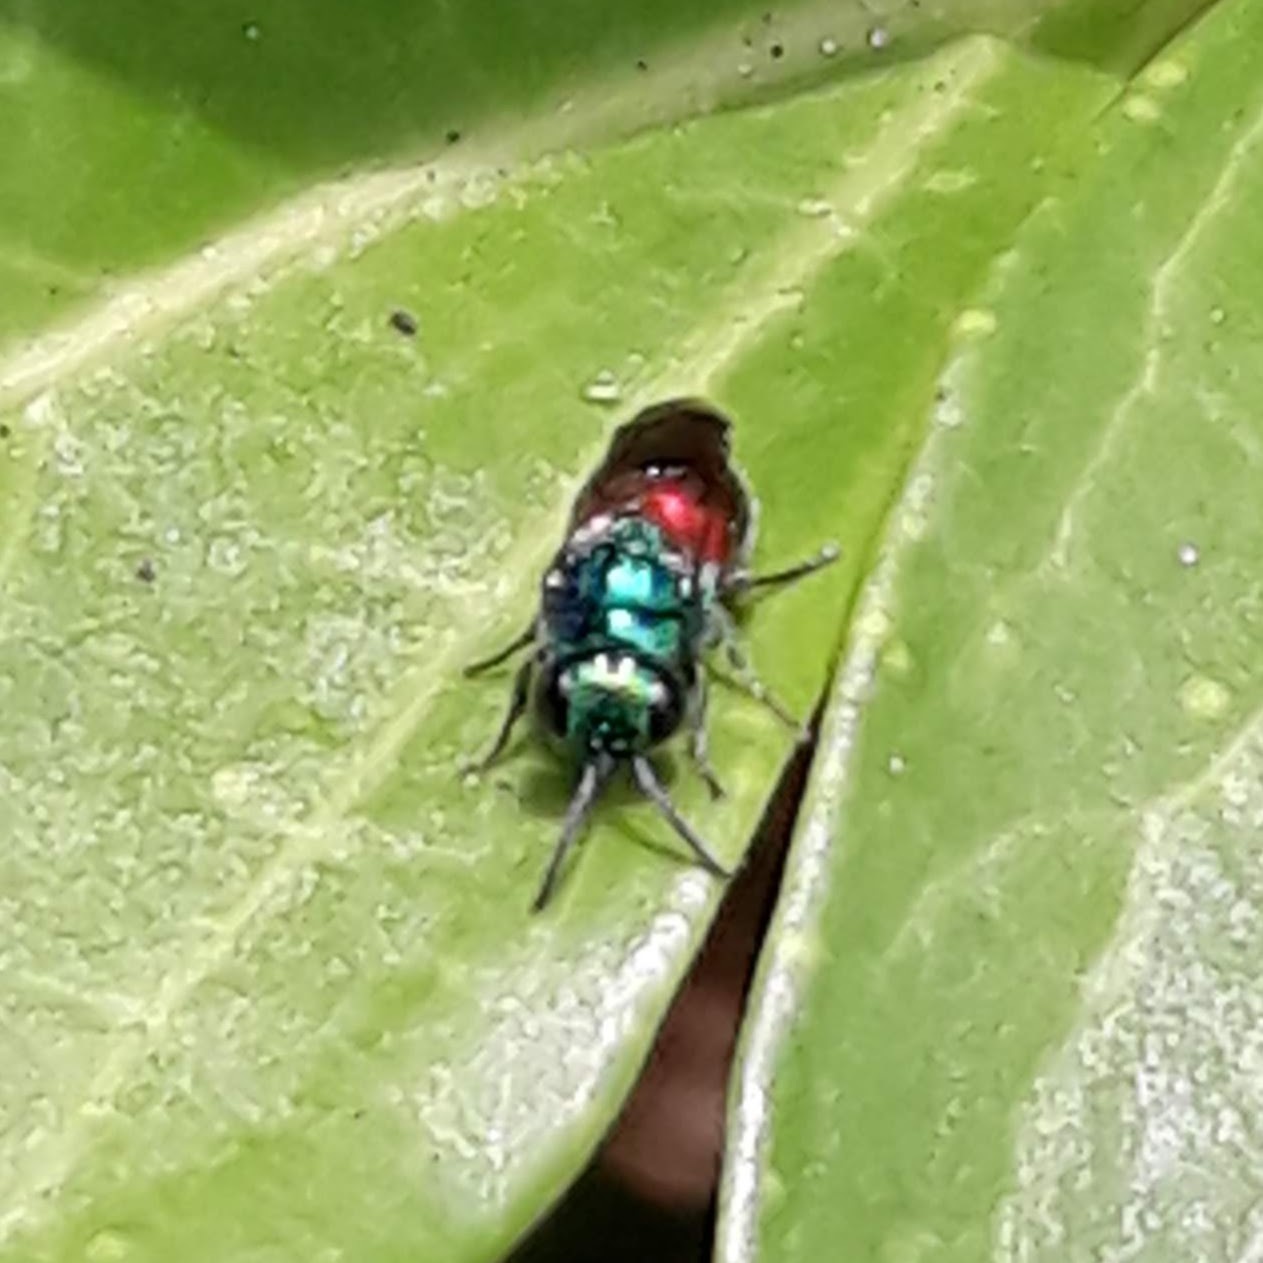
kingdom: Animalia
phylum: Arthropoda
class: Insecta
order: Hymenoptera
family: Chrysididae
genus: Pseudomalus
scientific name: Pseudomalus auratus
